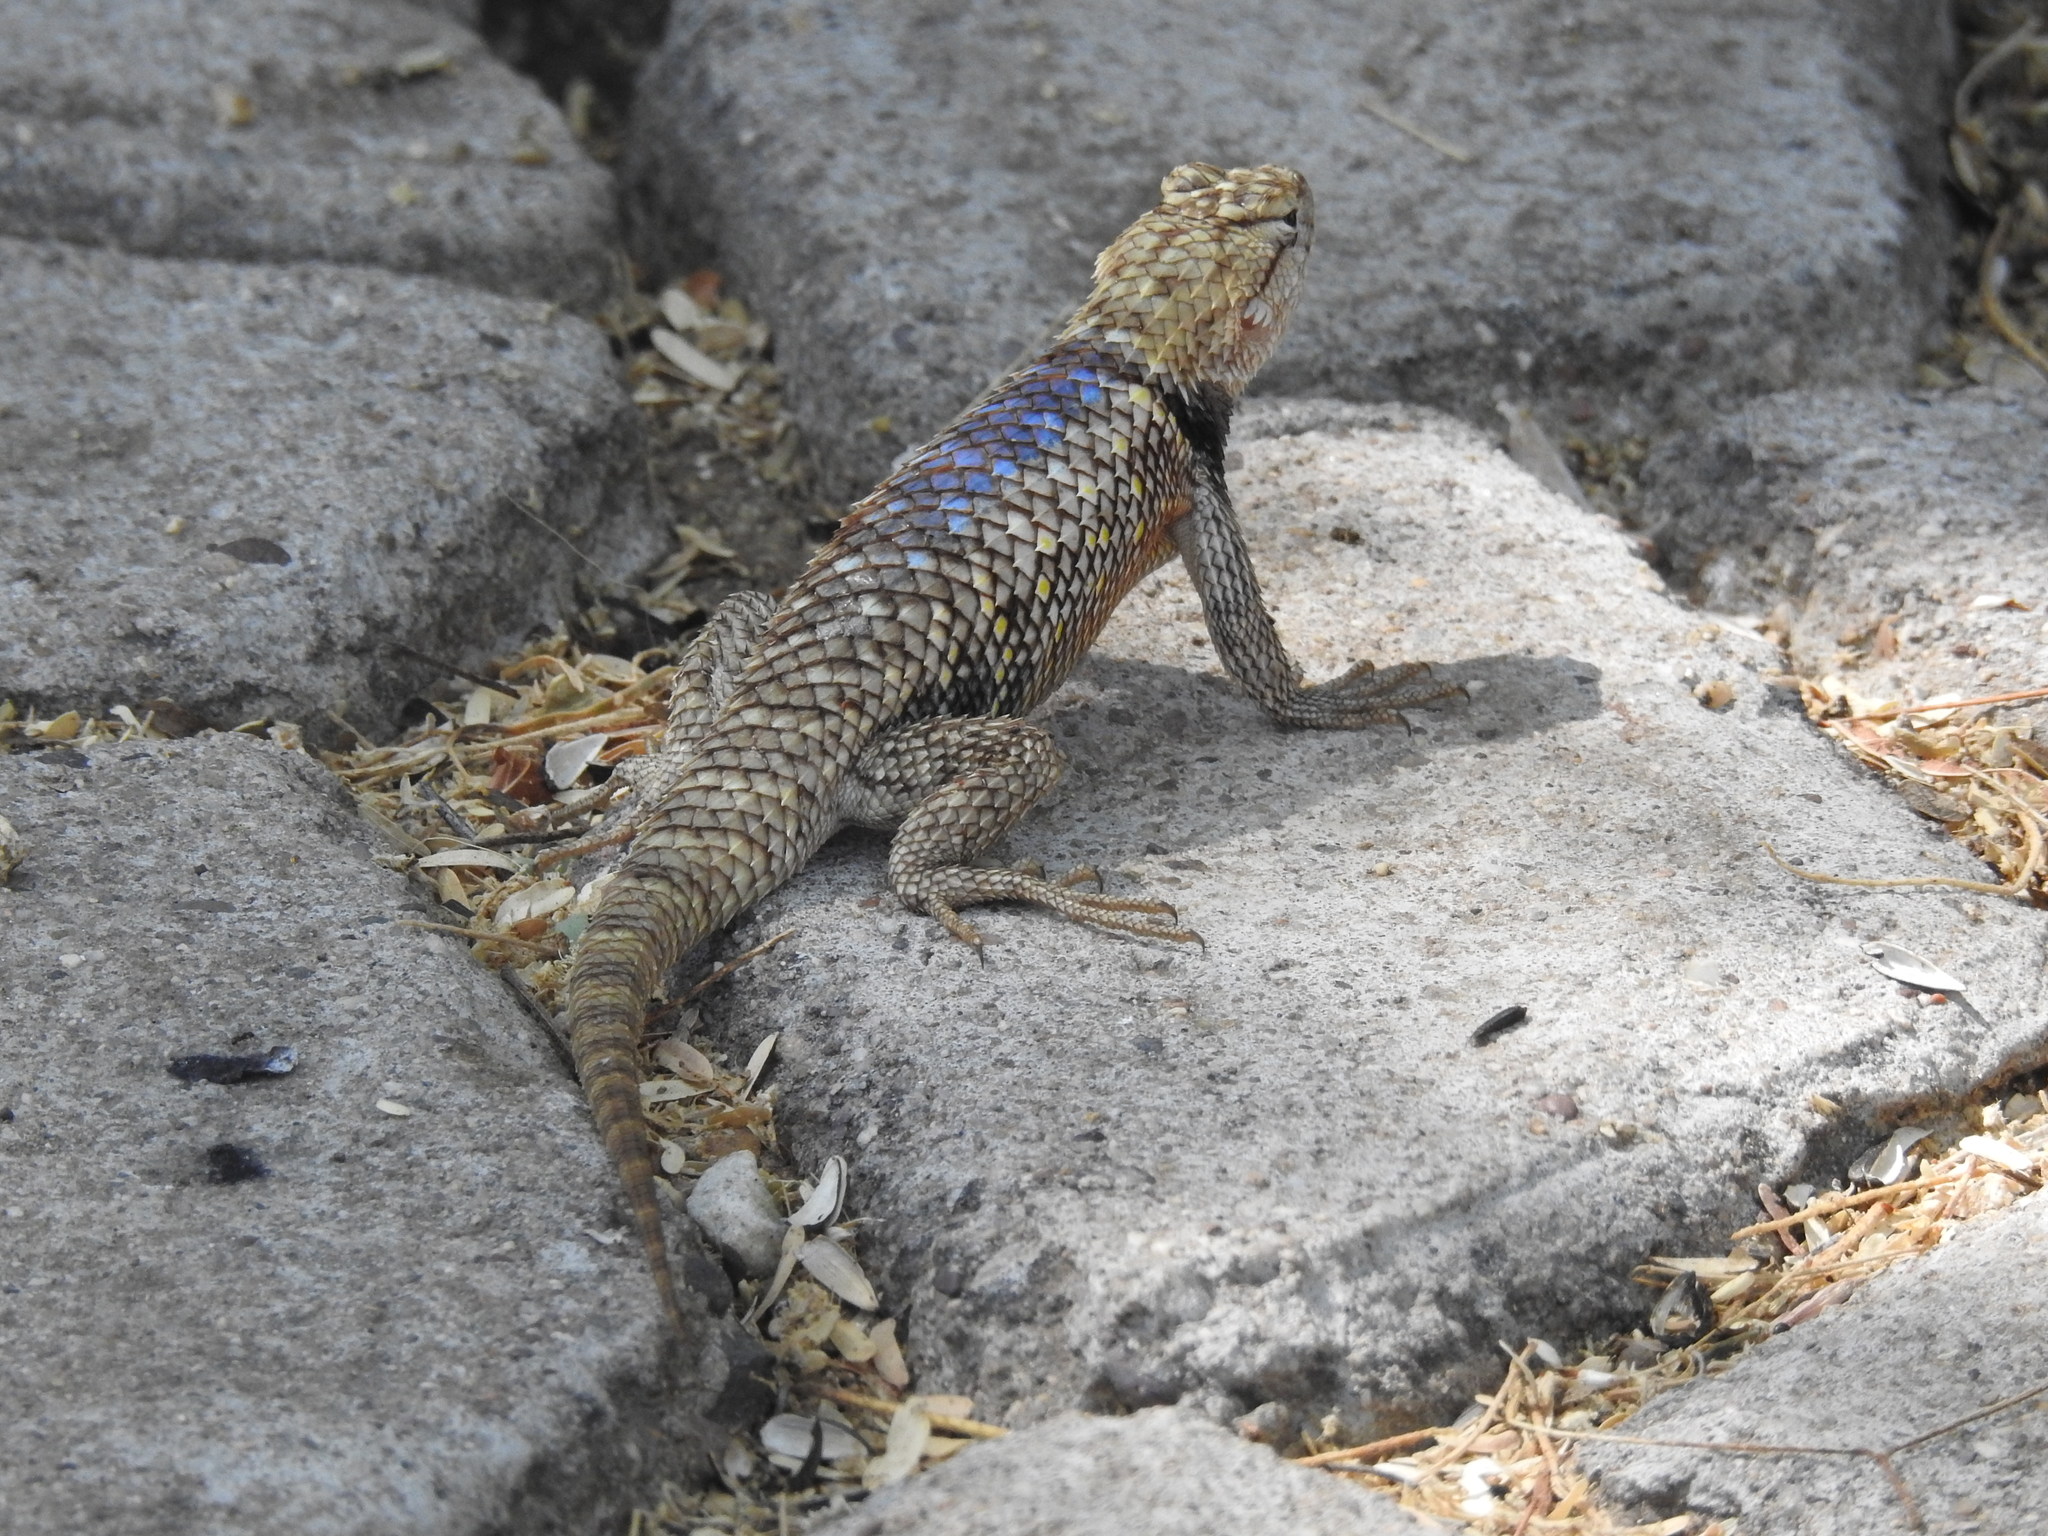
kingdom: Animalia
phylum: Chordata
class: Squamata
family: Phrynosomatidae
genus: Sceloporus
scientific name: Sceloporus magister
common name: Desert spiny lizard
